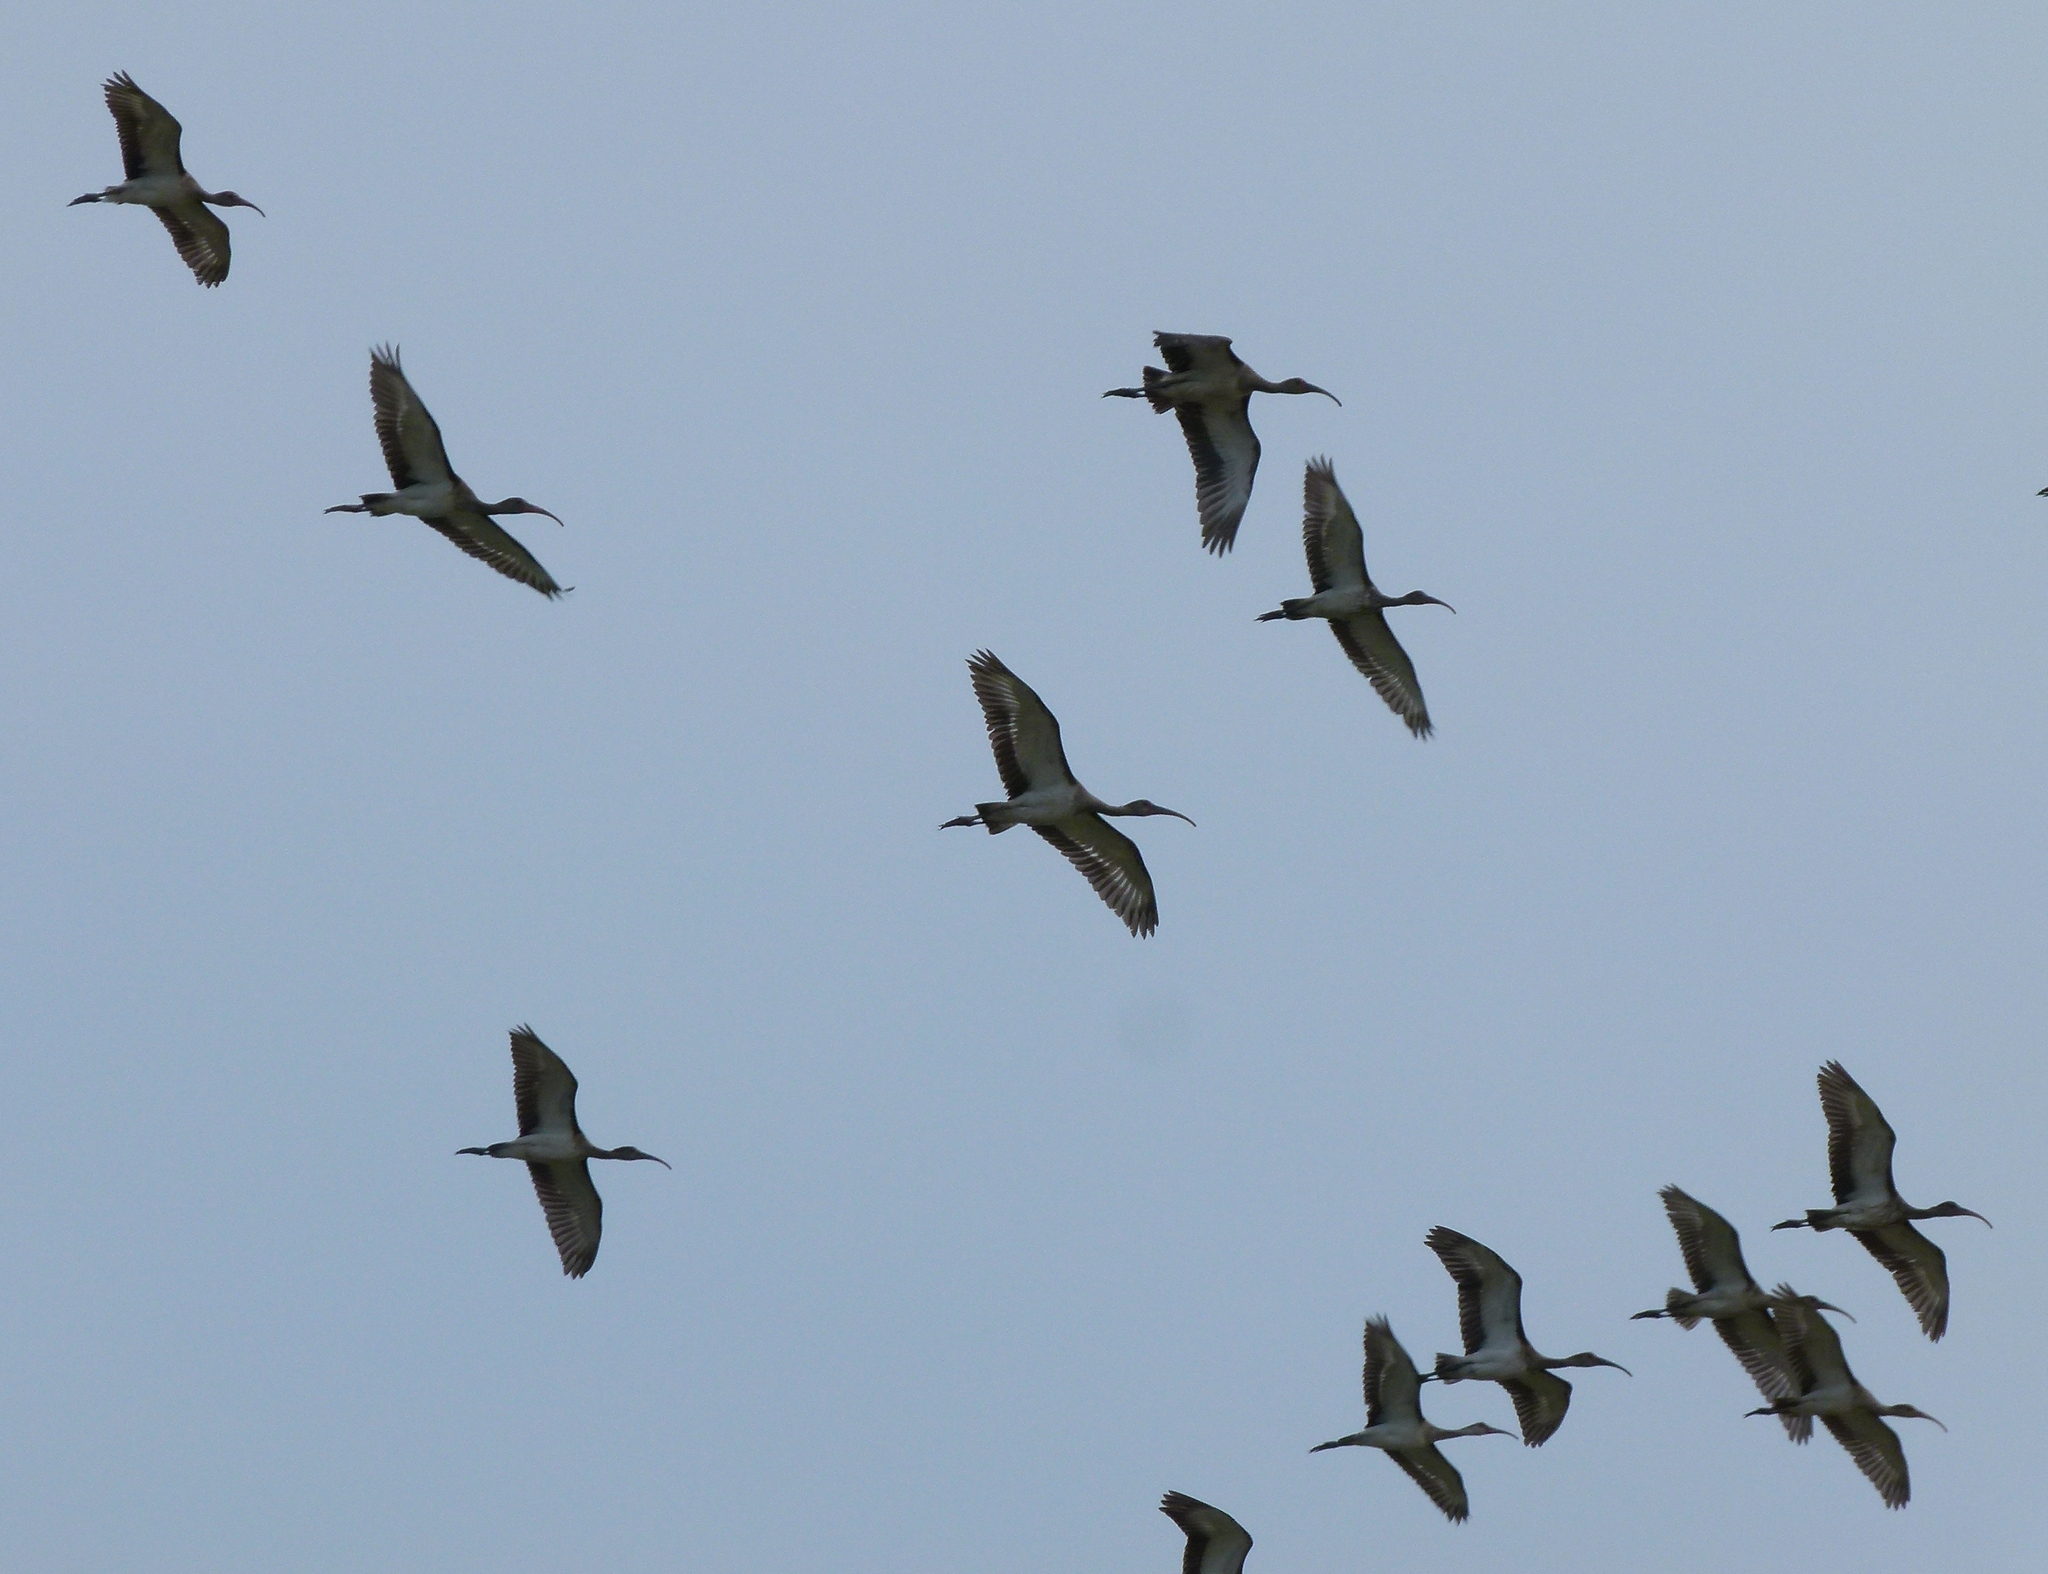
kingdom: Animalia
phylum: Chordata
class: Aves
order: Pelecaniformes
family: Threskiornithidae
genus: Eudocimus
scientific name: Eudocimus albus
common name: White ibis
